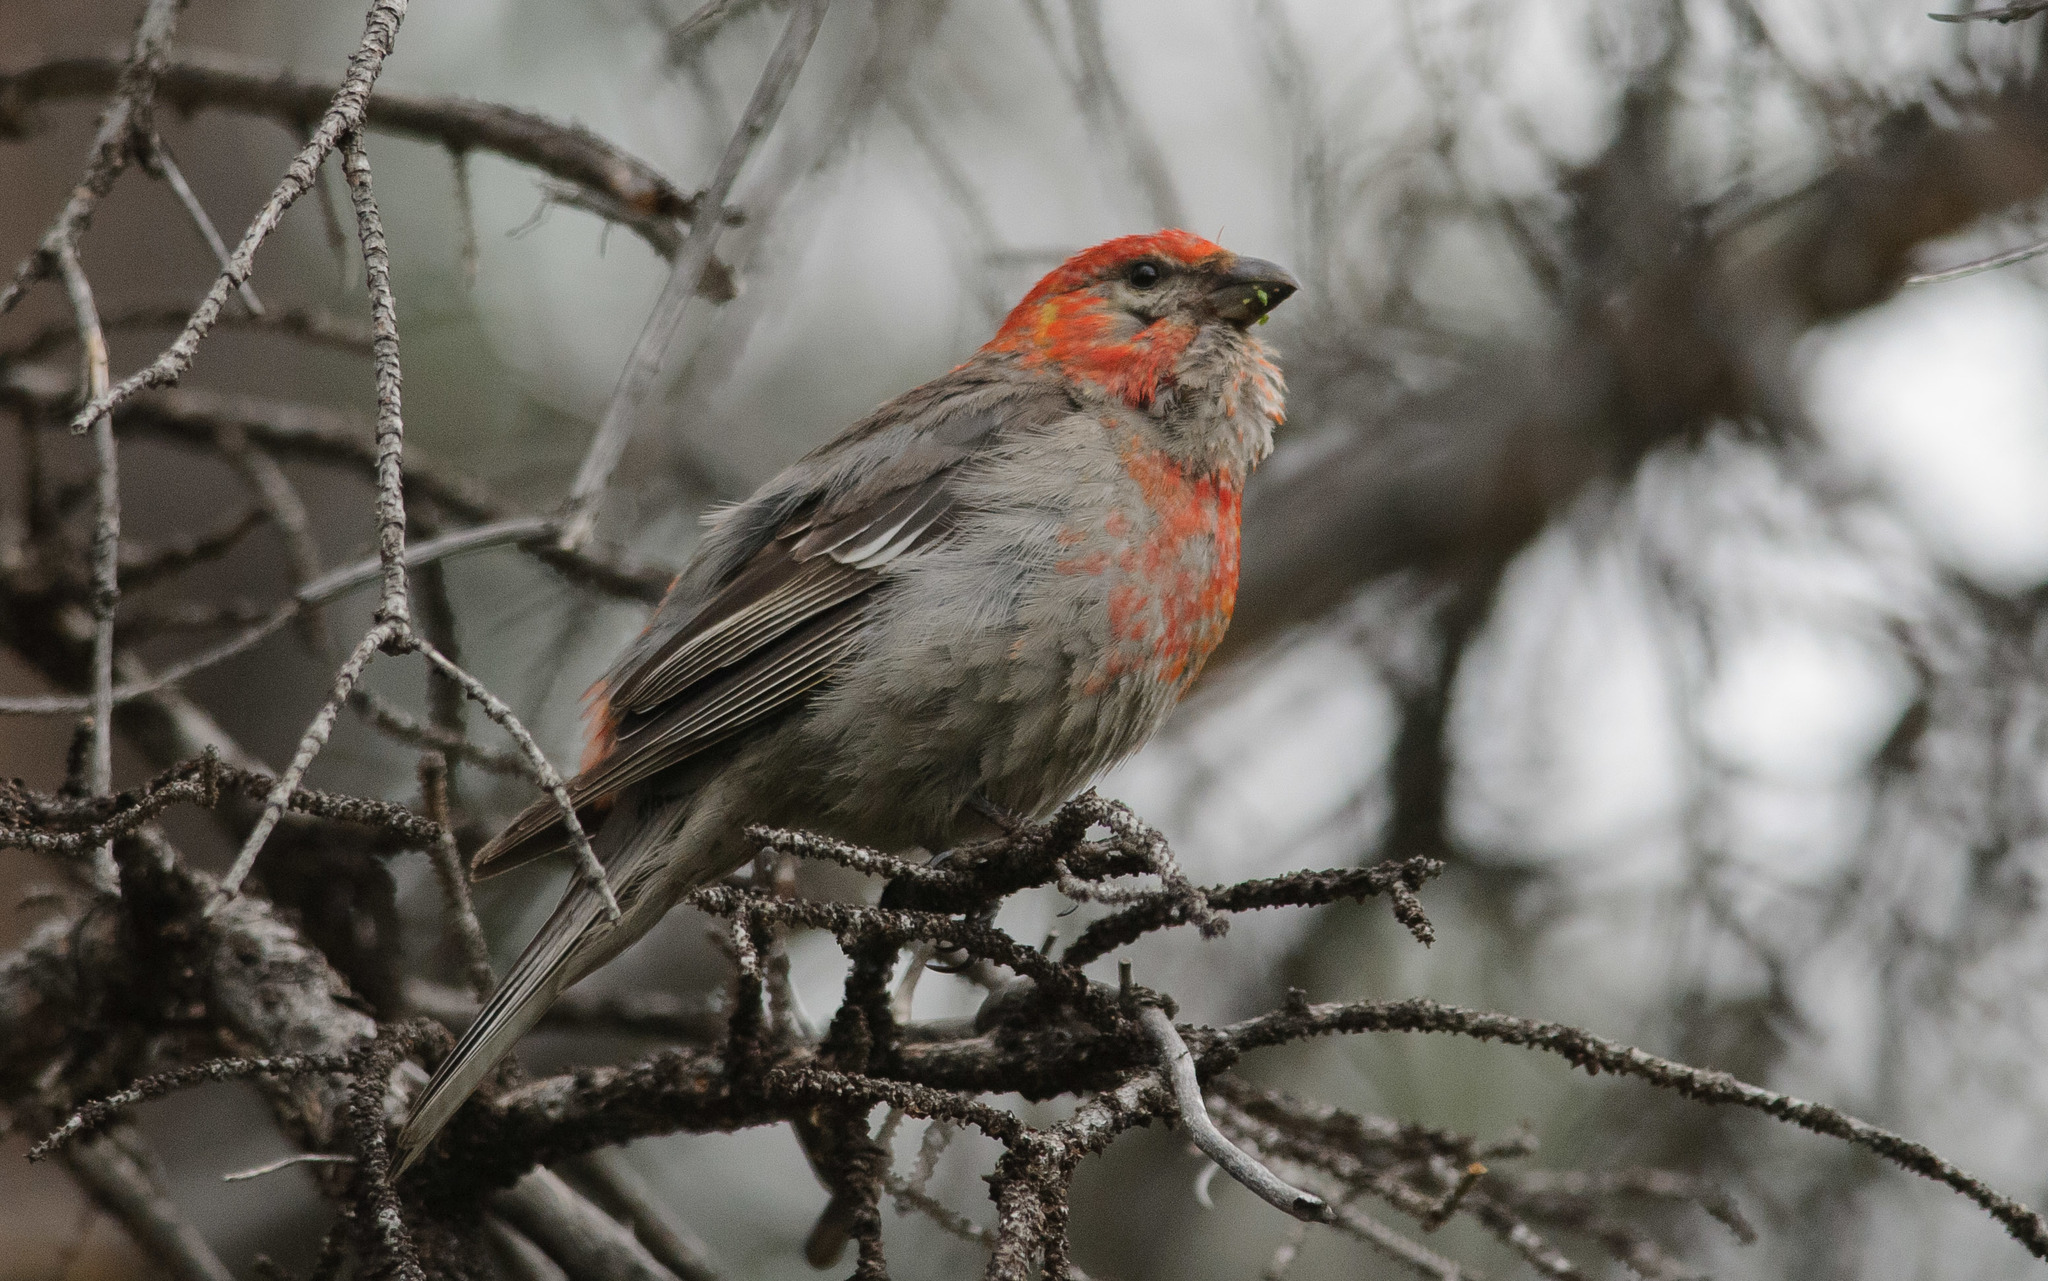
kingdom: Animalia
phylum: Chordata
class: Aves
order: Passeriformes
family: Fringillidae
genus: Pinicola
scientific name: Pinicola enucleator
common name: Pine grosbeak
